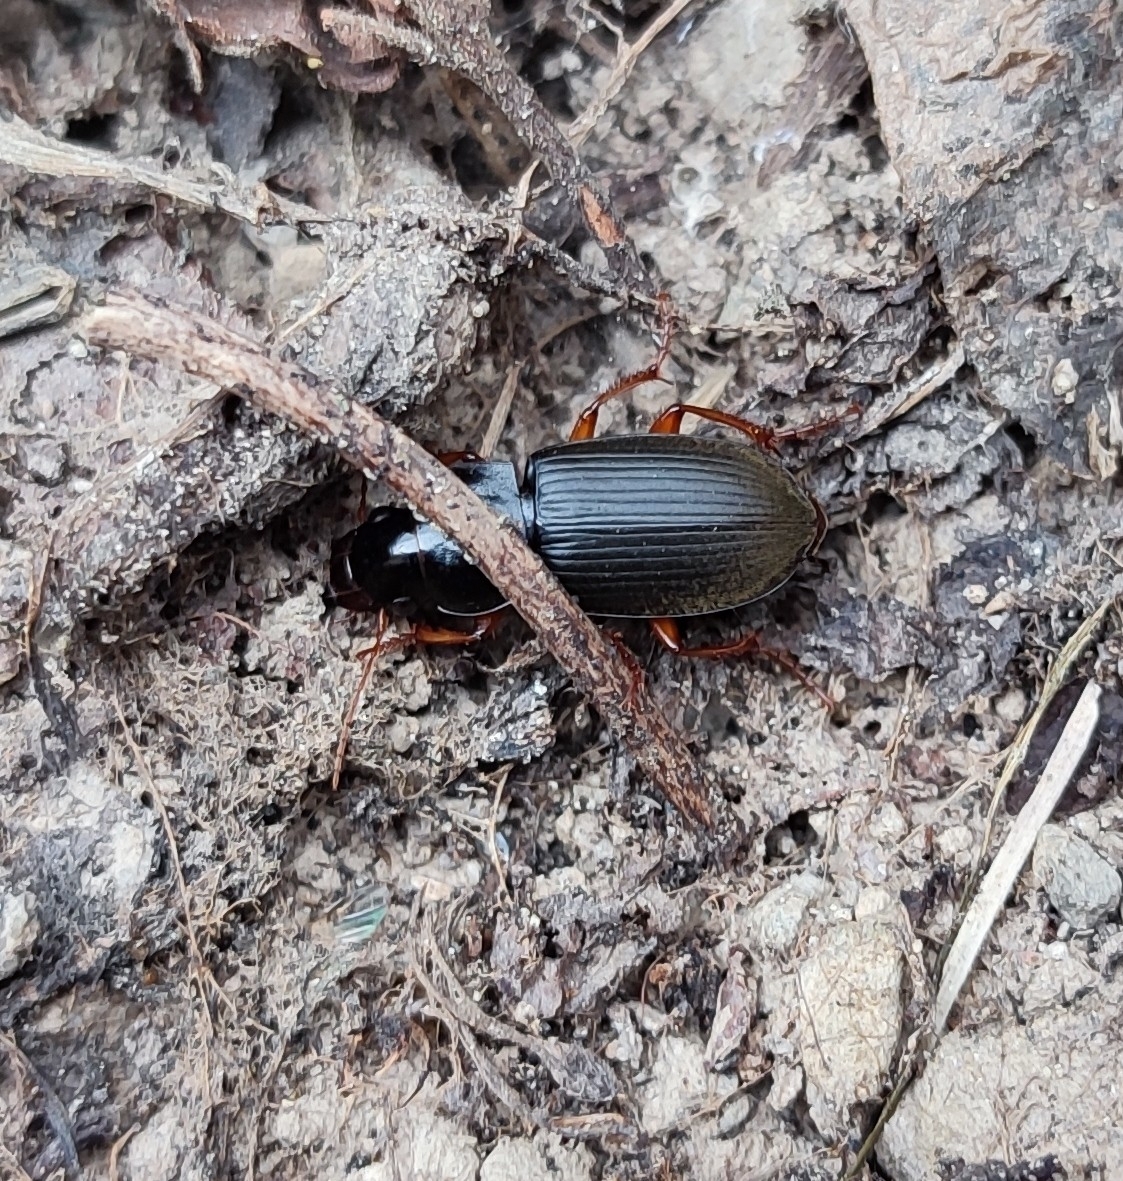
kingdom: Animalia
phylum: Arthropoda
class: Insecta
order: Coleoptera
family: Carabidae
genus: Harpalus
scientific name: Harpalus rufipes
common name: Strawberry harp ground beetle
